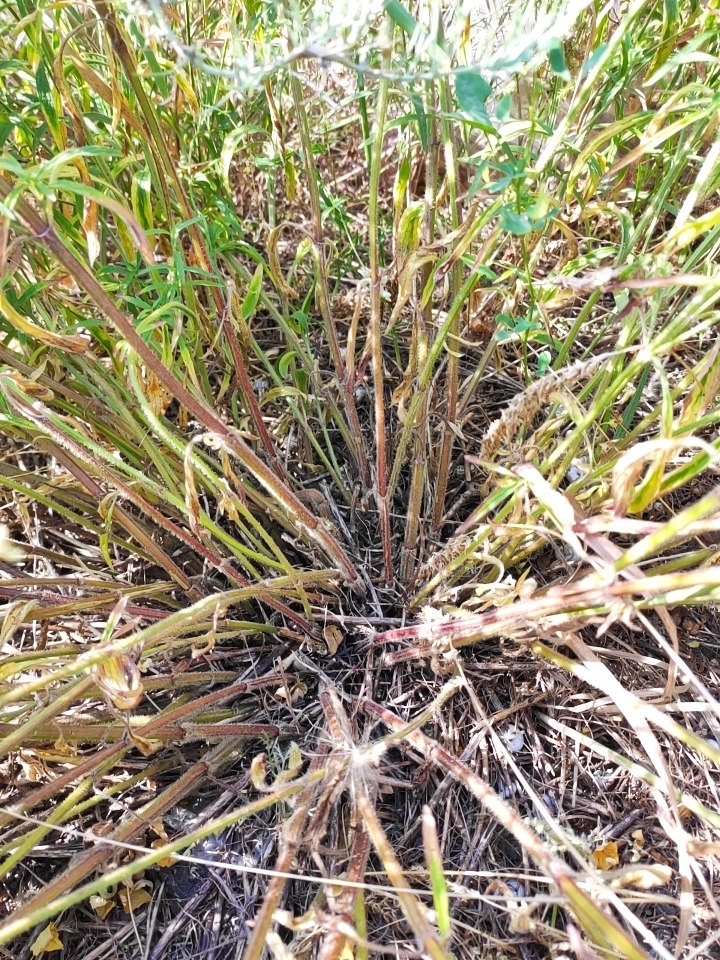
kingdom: Plantae
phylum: Tracheophyta
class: Magnoliopsida
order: Lamiales
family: Lamiaceae
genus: Stachys
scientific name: Stachys recta
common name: Perennial yellow-woundwort
